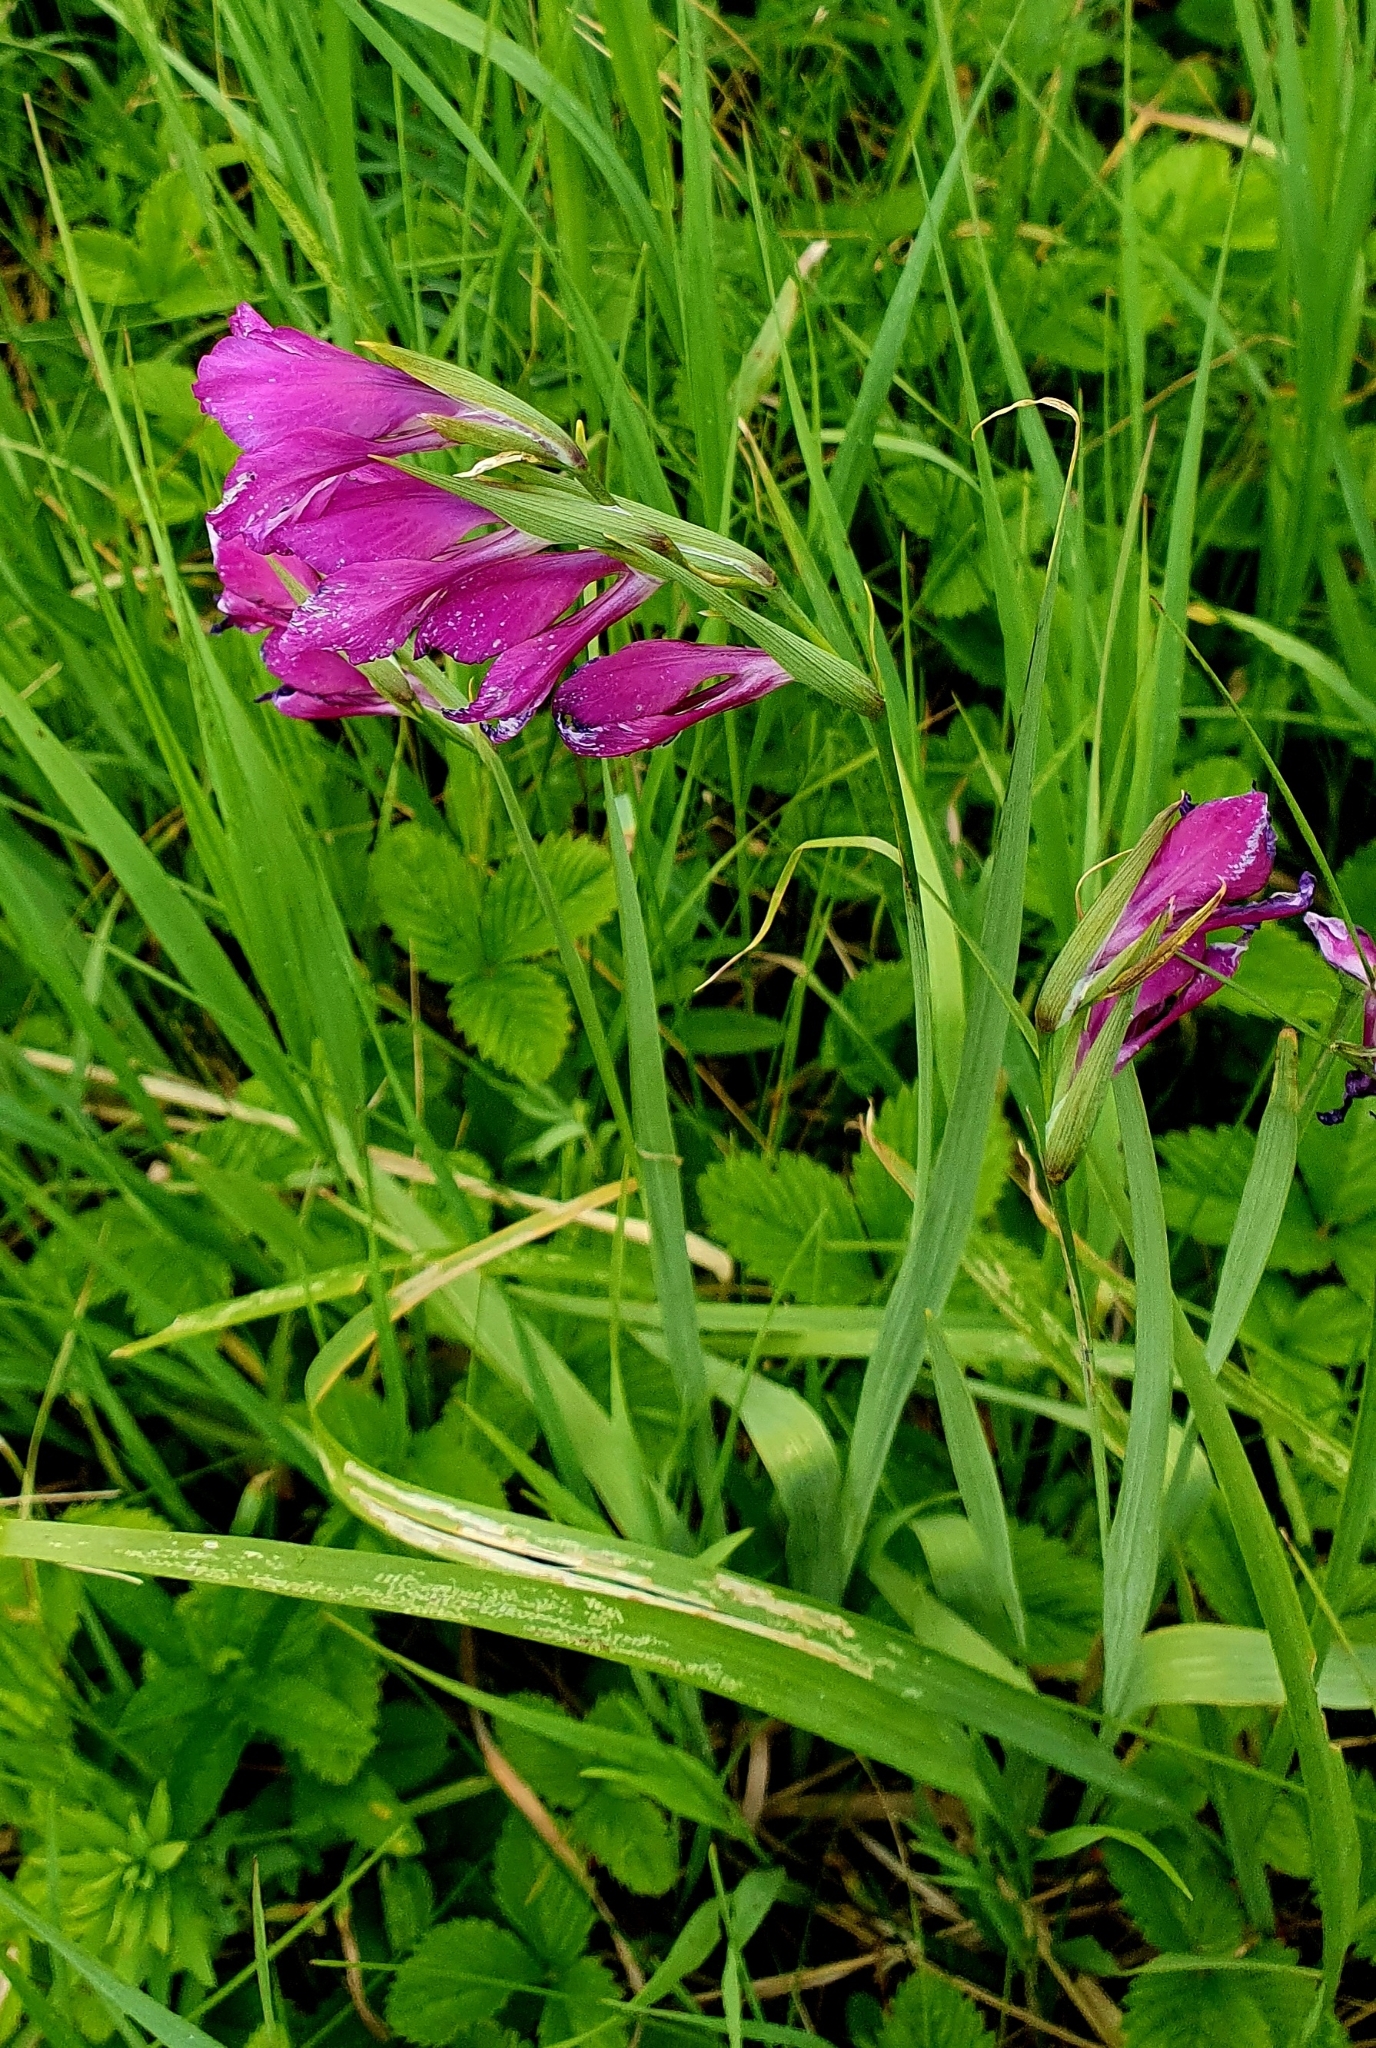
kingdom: Plantae
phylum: Tracheophyta
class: Liliopsida
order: Asparagales
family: Iridaceae
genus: Gladiolus
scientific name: Gladiolus tenuis
